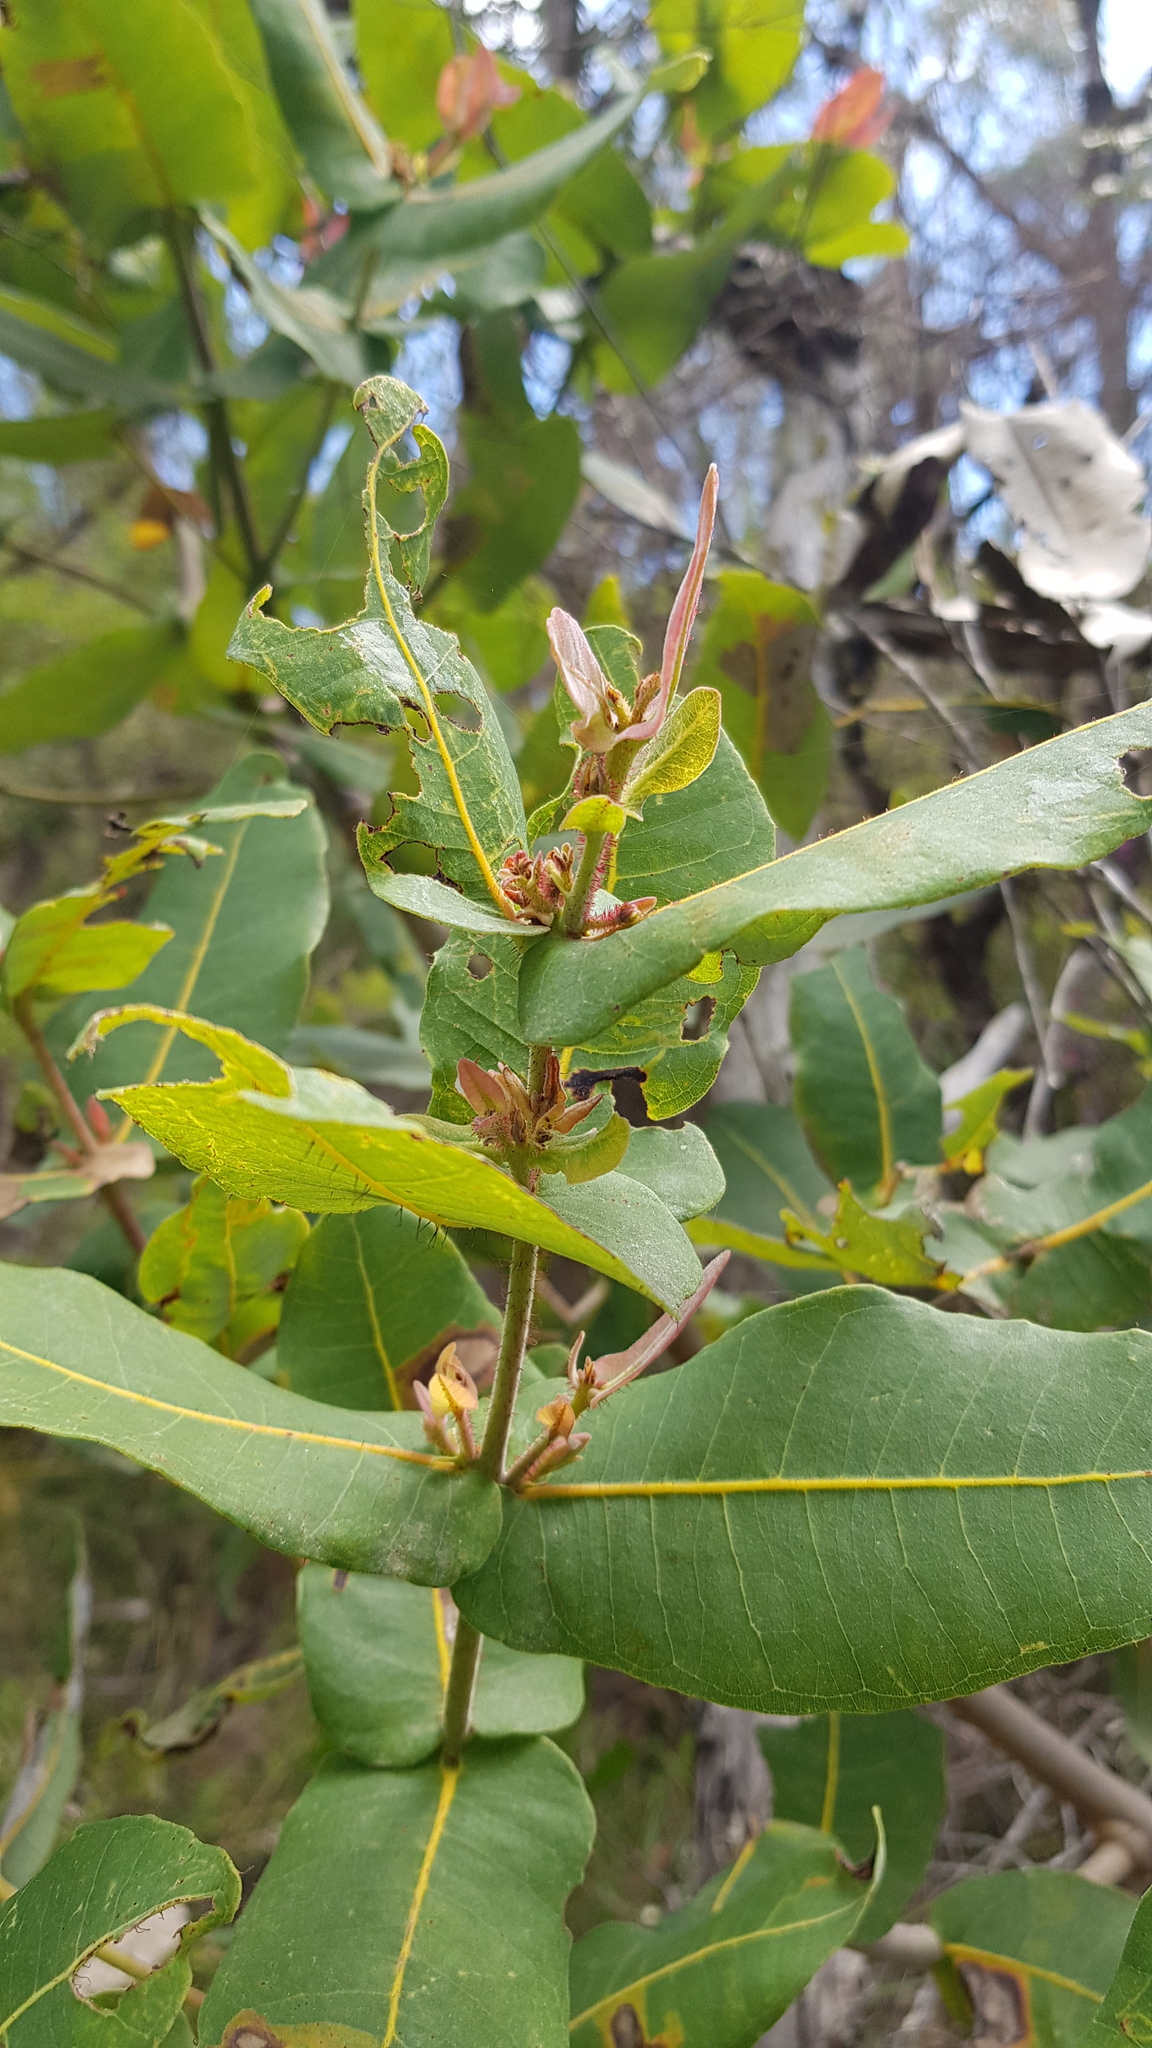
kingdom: Plantae
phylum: Tracheophyta
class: Magnoliopsida
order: Myrtales
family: Myrtaceae
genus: Angophora
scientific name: Angophora hispida
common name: Dwarf-apple
